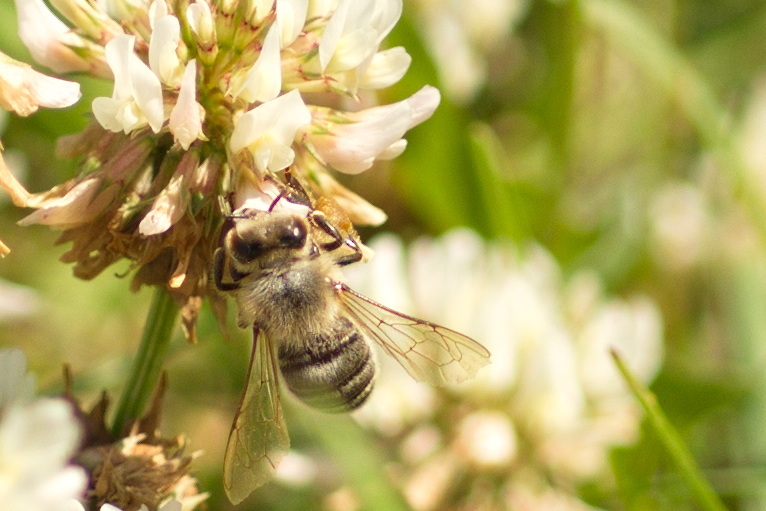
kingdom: Animalia
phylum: Arthropoda
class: Insecta
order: Hymenoptera
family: Apidae
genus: Apis
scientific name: Apis mellifera
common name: Honey bee
